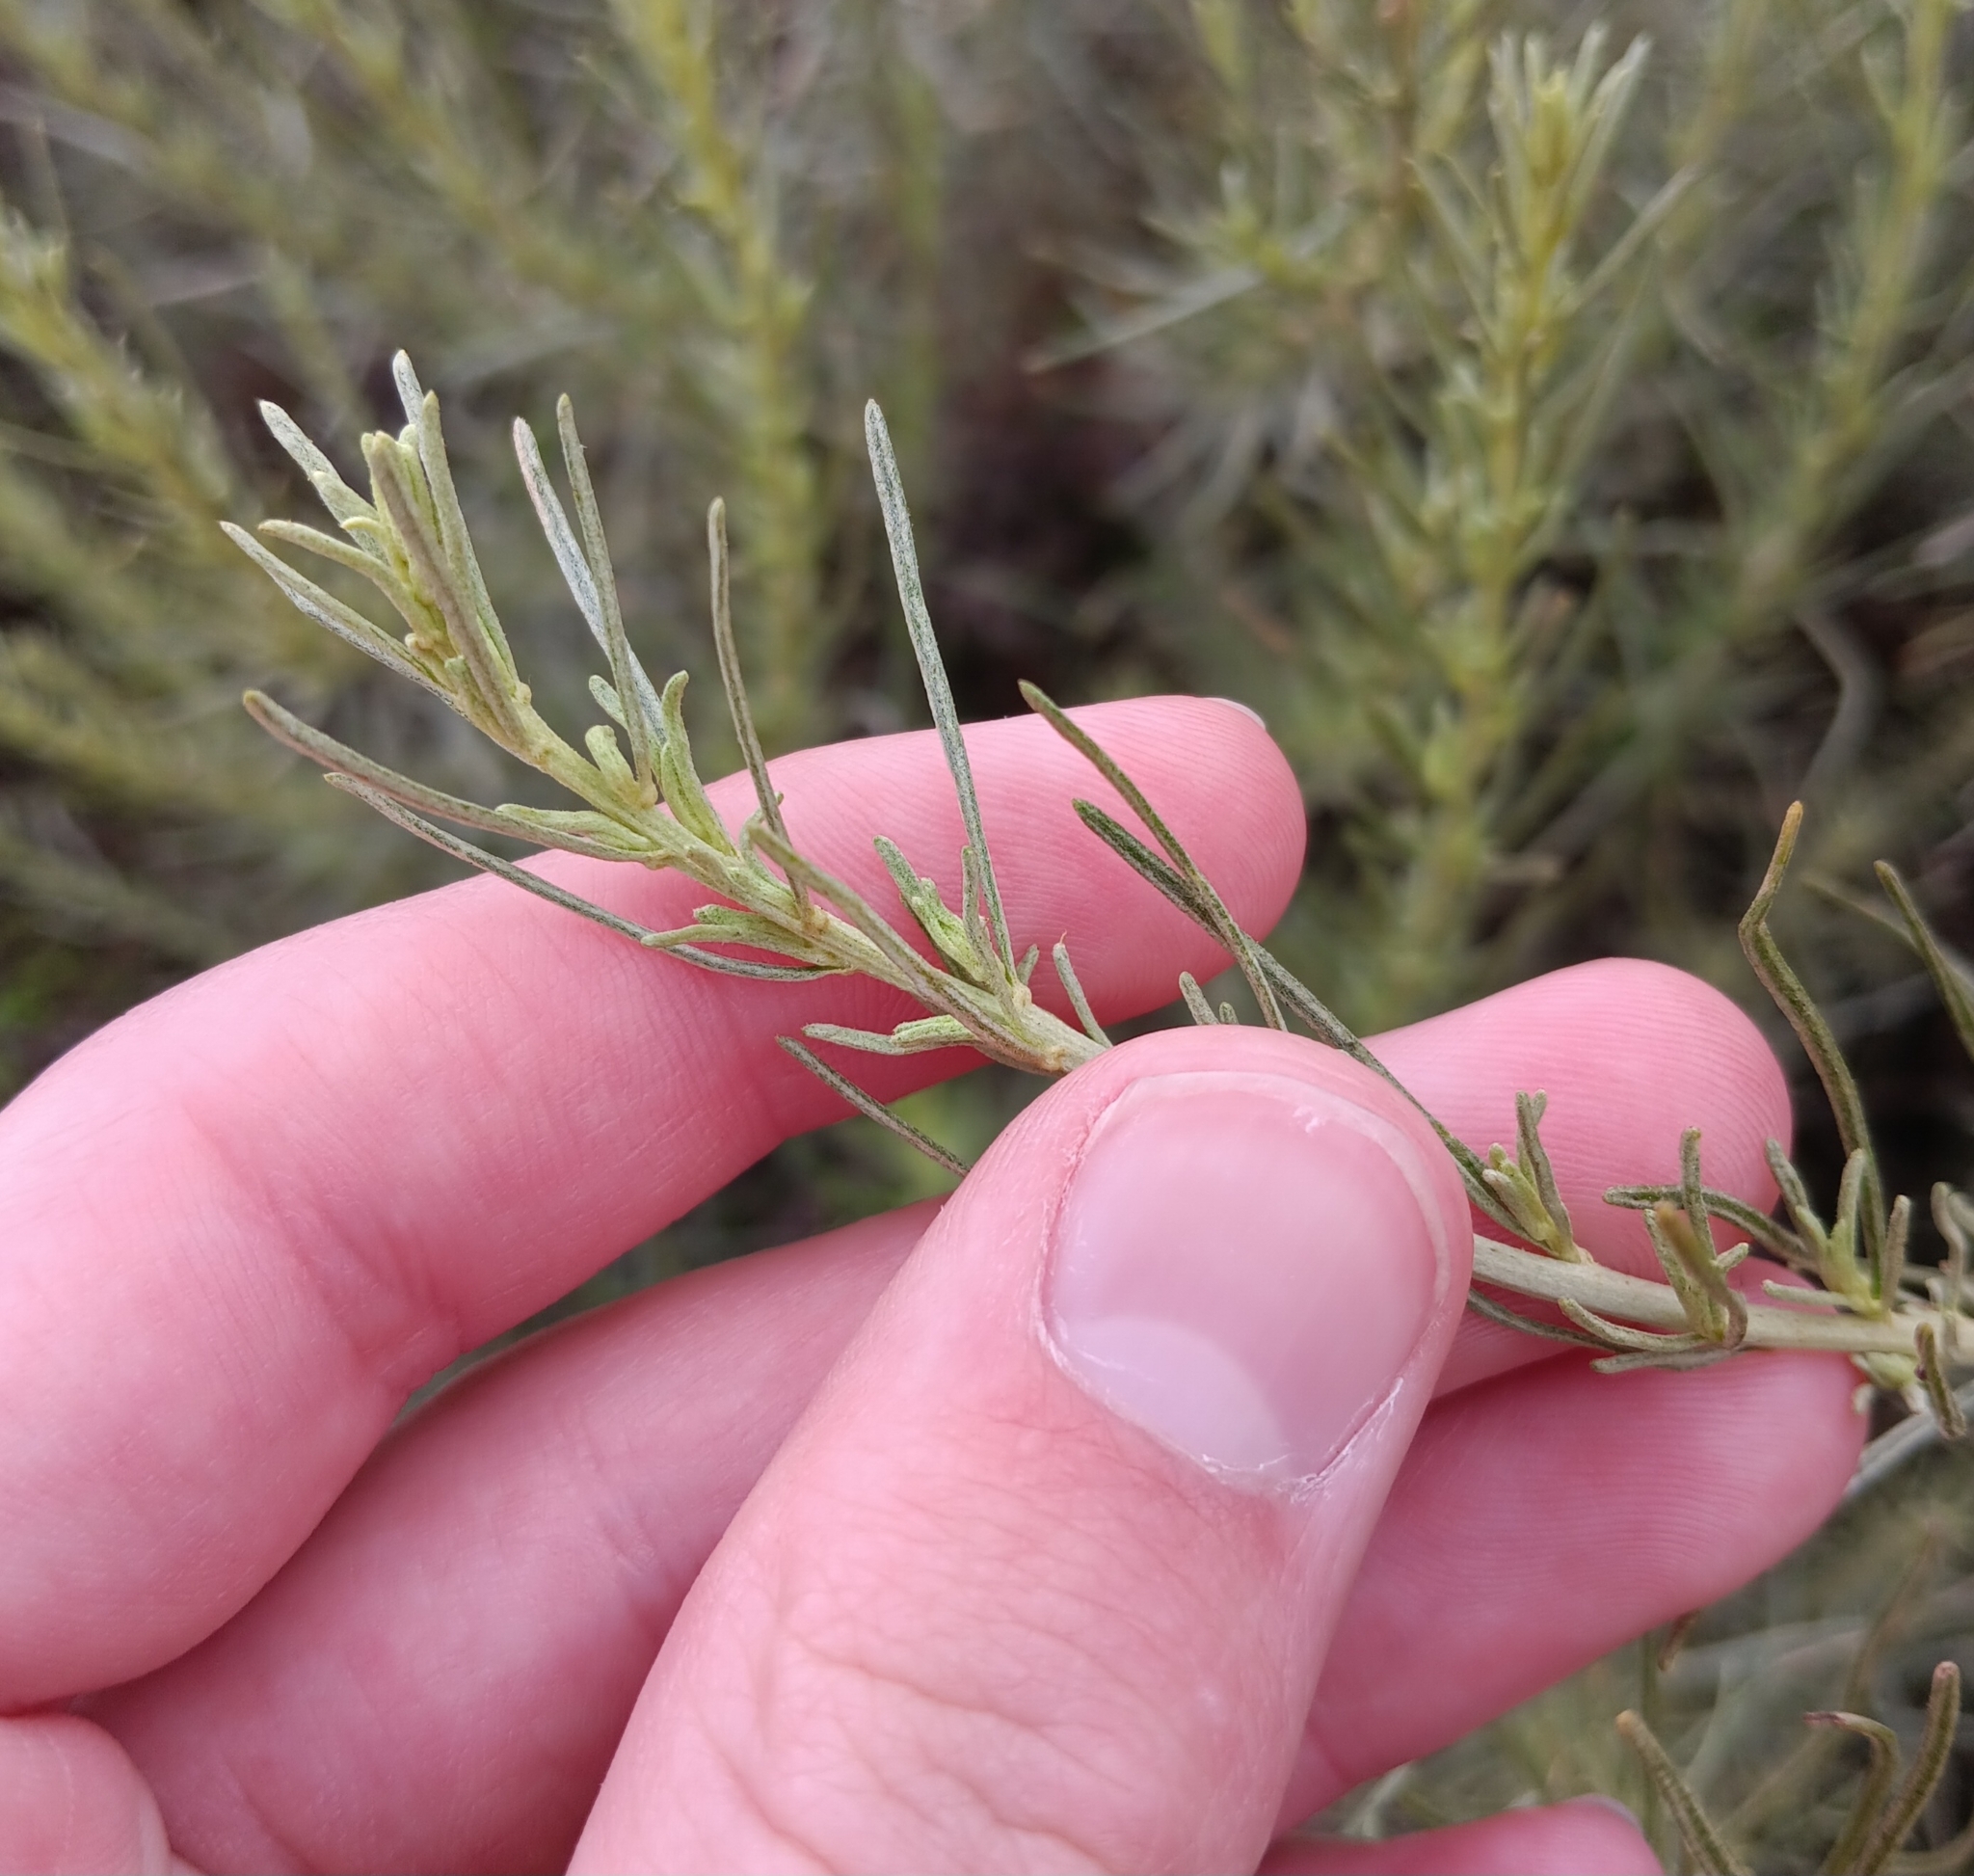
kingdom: Plantae
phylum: Tracheophyta
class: Magnoliopsida
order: Asterales
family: Asteraceae
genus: Artemisia
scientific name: Artemisia californica
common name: California sagebrush
